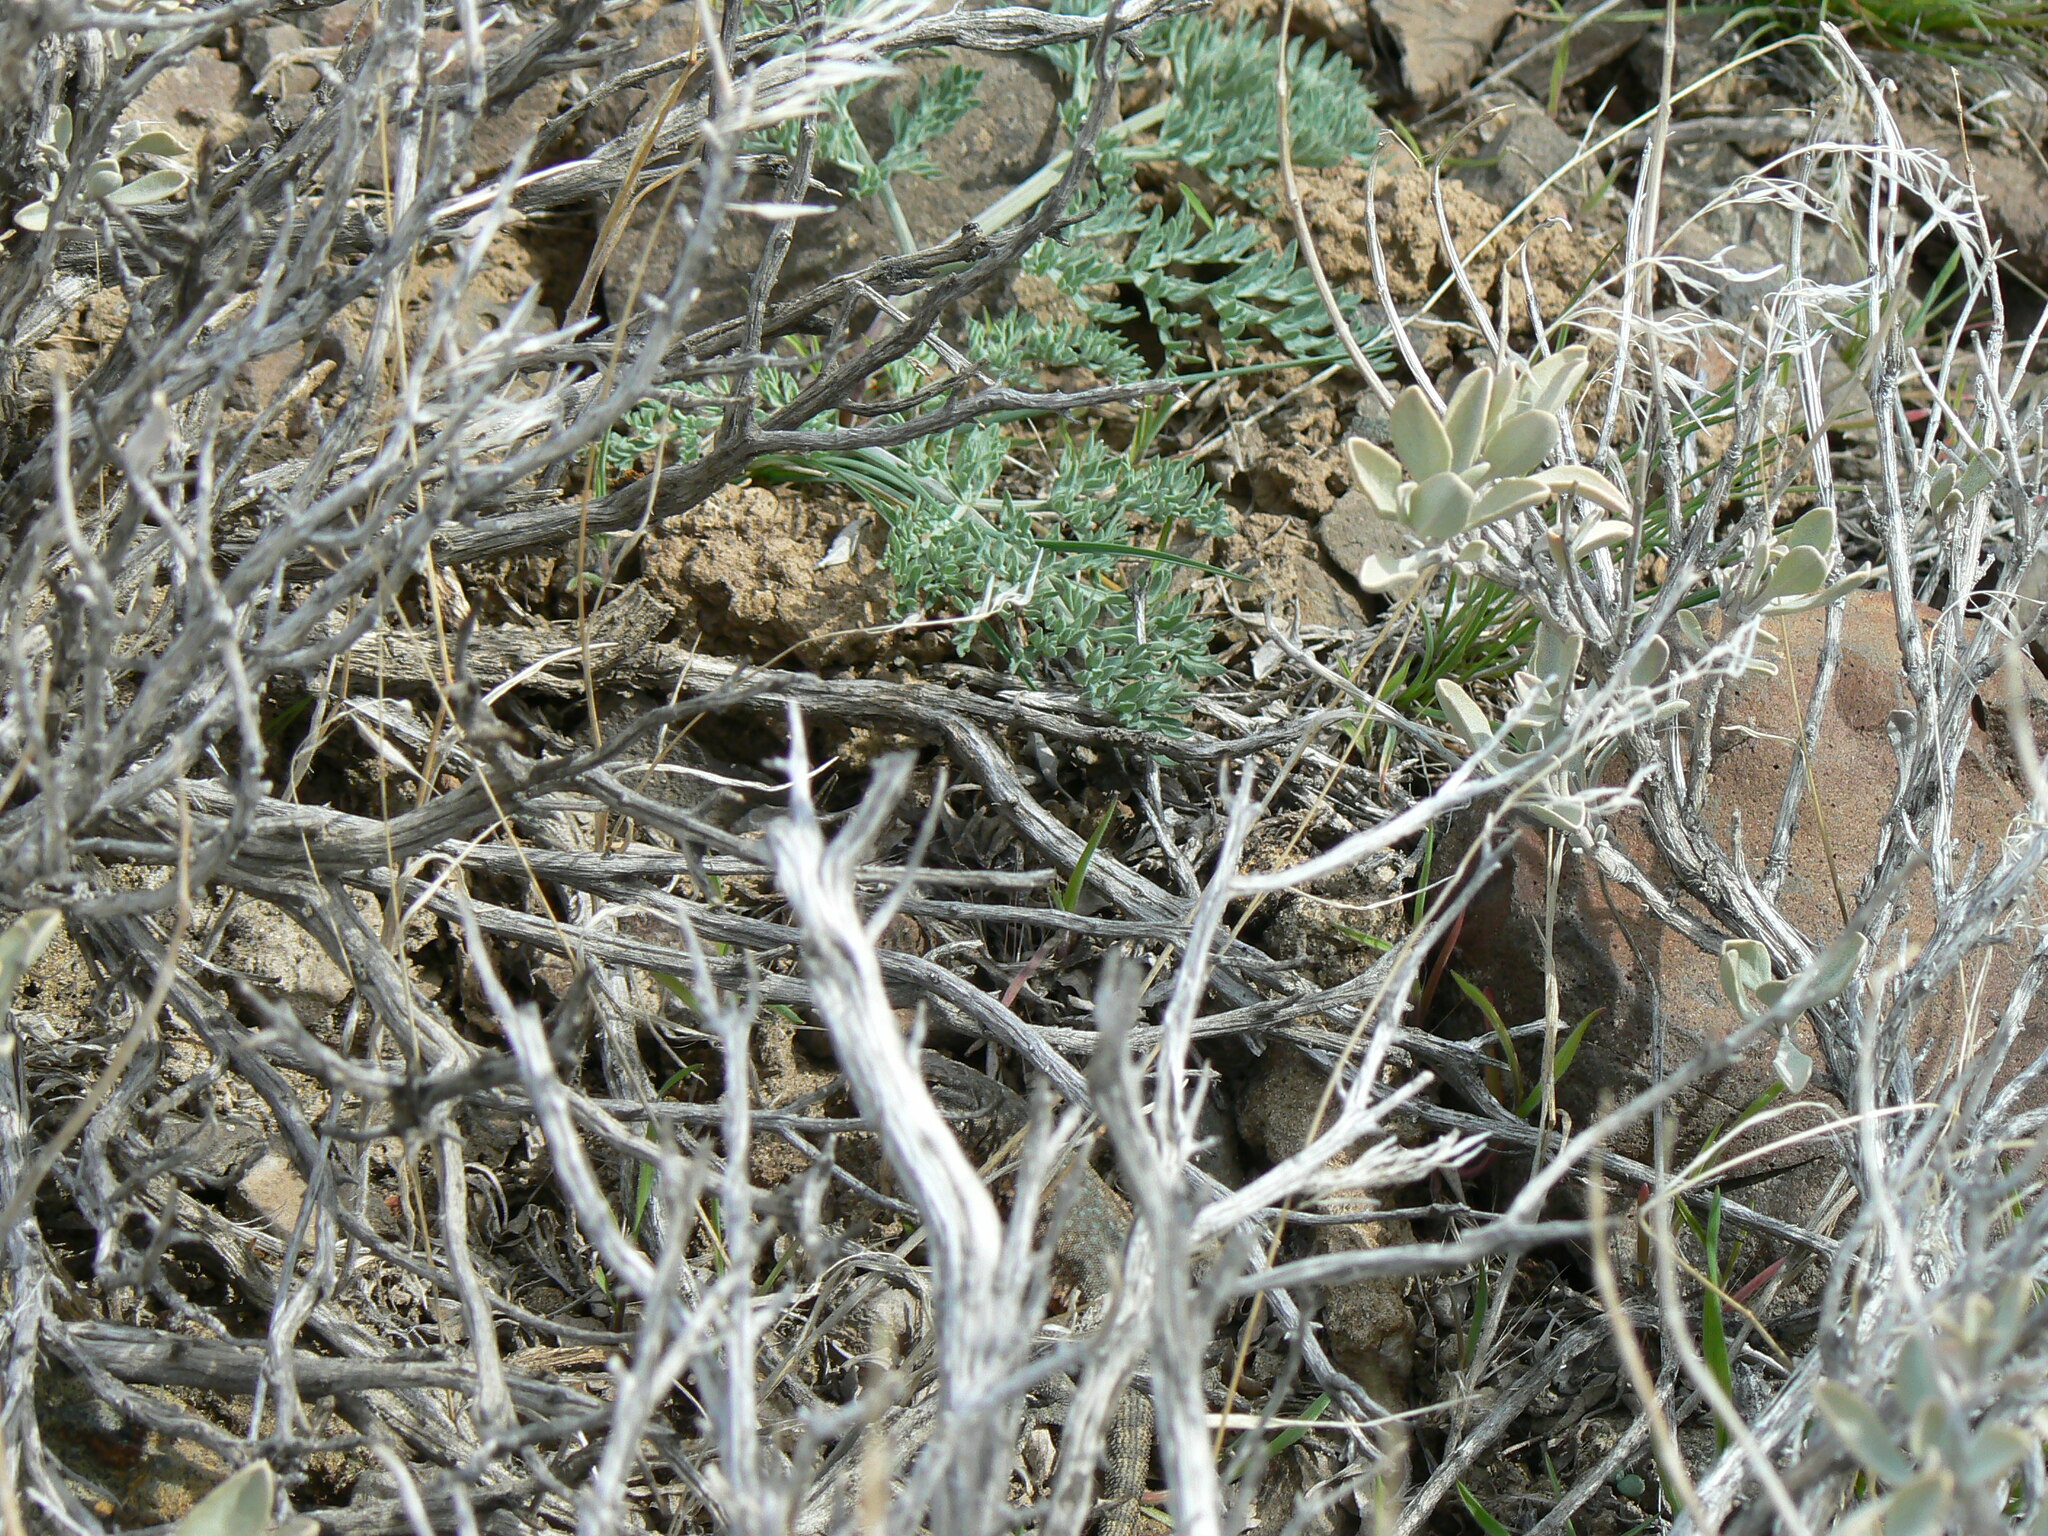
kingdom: Animalia
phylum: Chordata
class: Squamata
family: Phrynosomatidae
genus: Uta
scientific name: Uta stansburiana
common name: Side-blotched lizard
